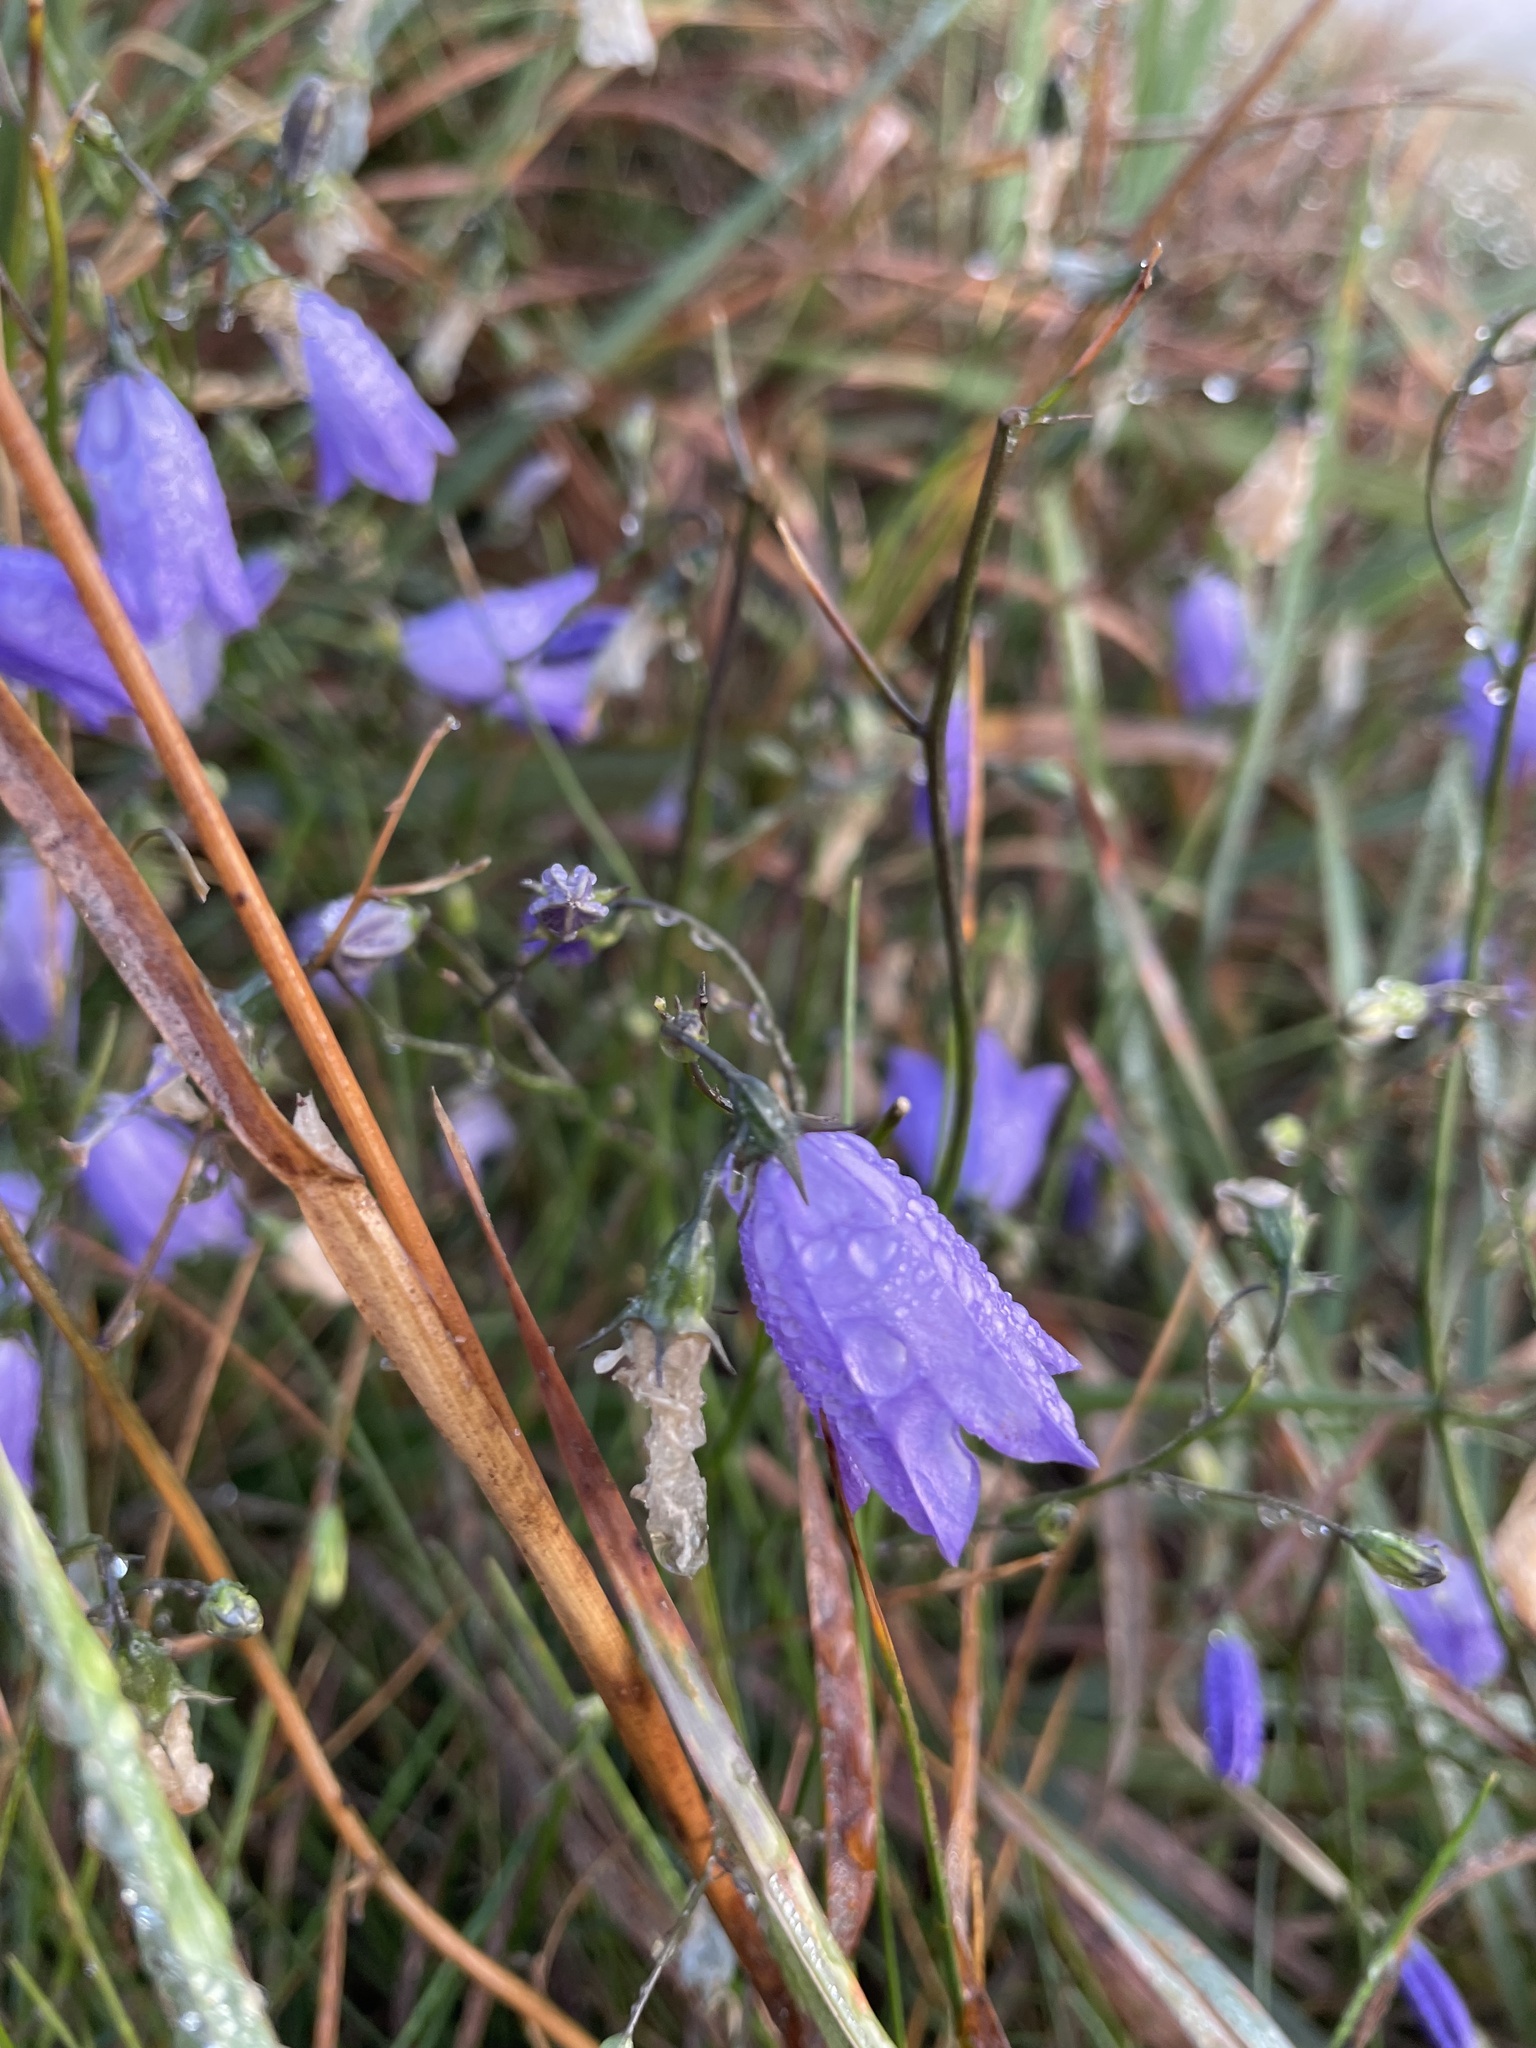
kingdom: Plantae
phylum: Tracheophyta
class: Magnoliopsida
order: Asterales
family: Campanulaceae
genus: Campanula
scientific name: Campanula rotundifolia
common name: Harebell
